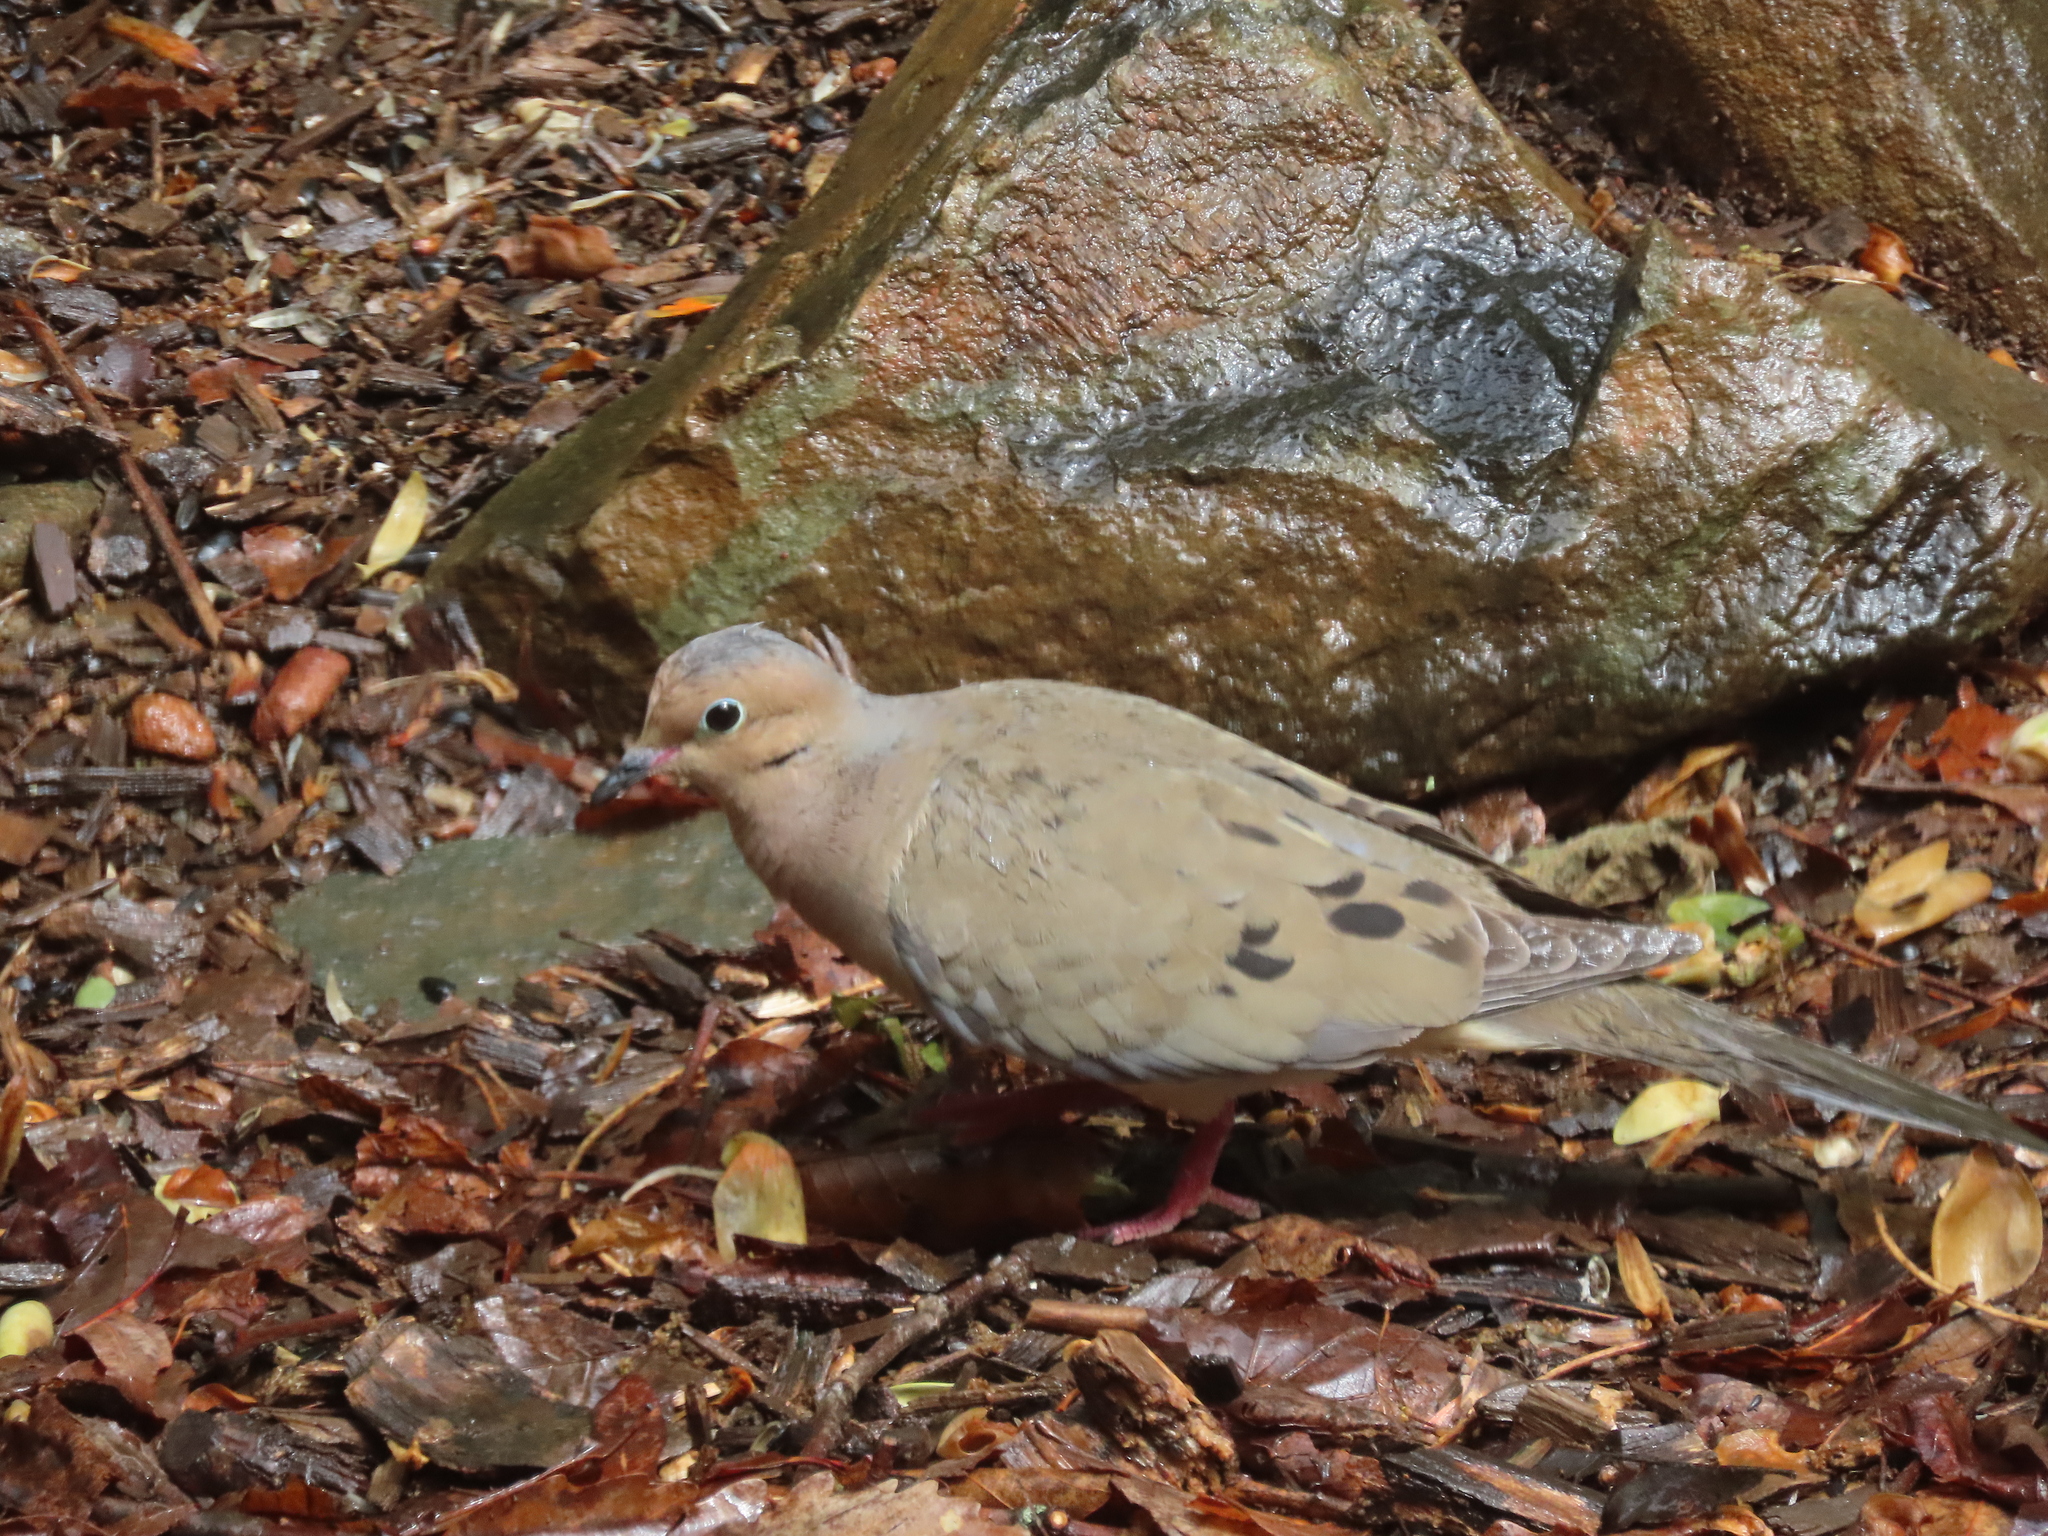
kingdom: Animalia
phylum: Chordata
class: Aves
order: Columbiformes
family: Columbidae
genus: Zenaida
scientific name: Zenaida macroura
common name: Mourning dove
